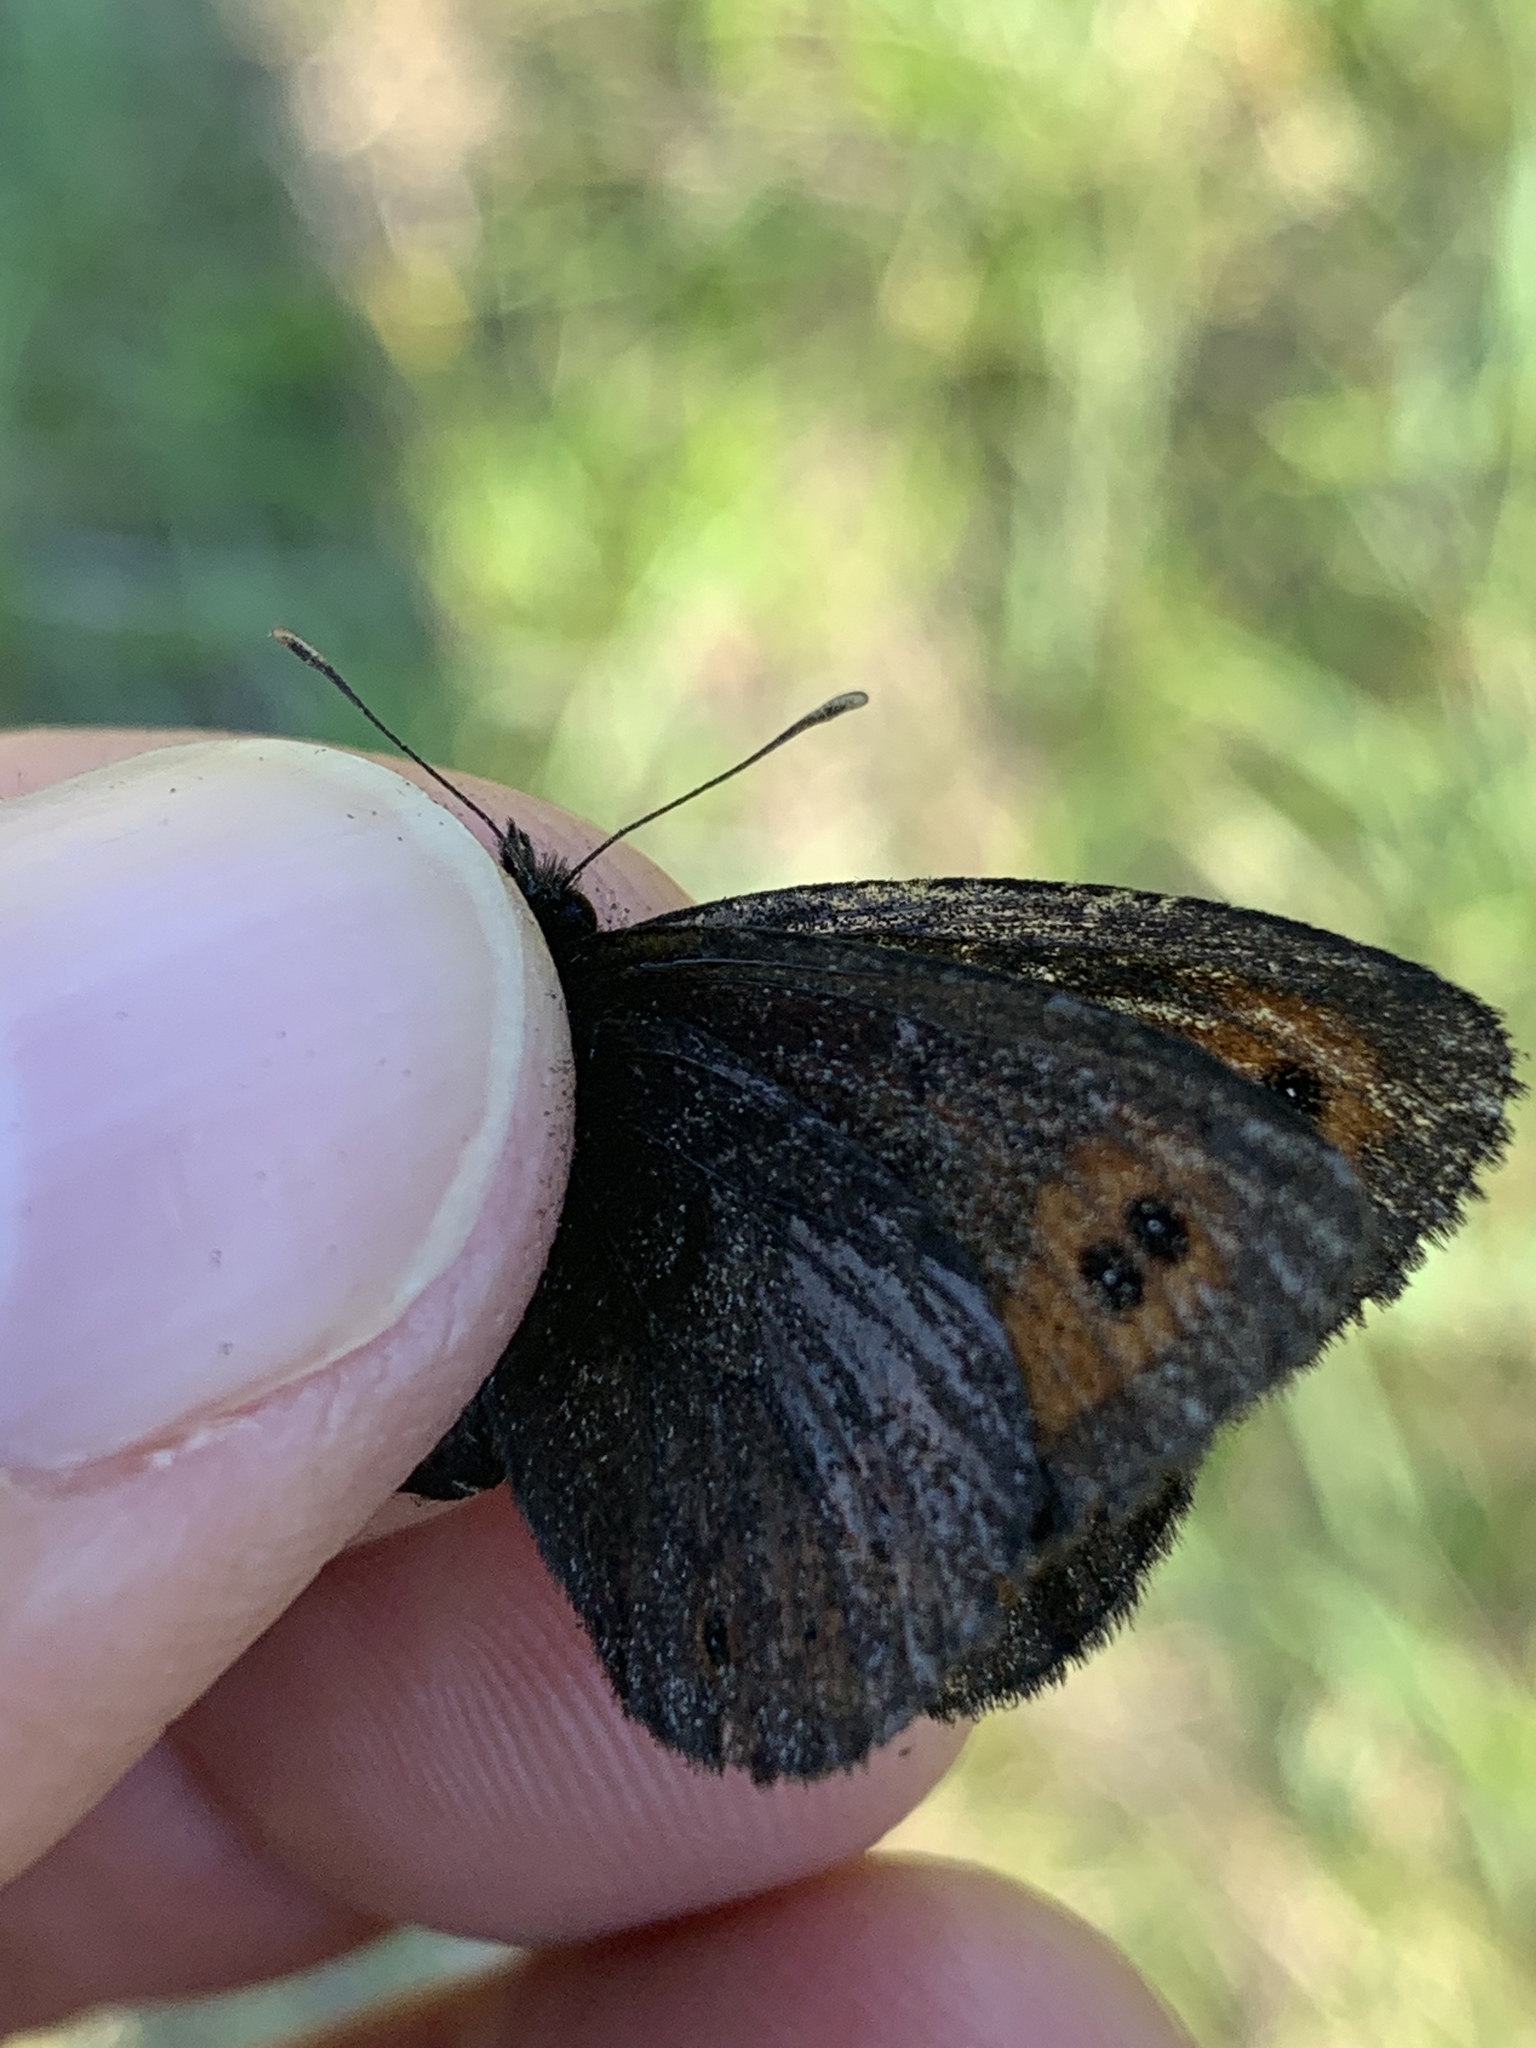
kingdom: Animalia
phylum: Arthropoda
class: Insecta
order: Lepidoptera
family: Nymphalidae
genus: Erebia
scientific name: Erebia epipsodea
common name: Common alpine
